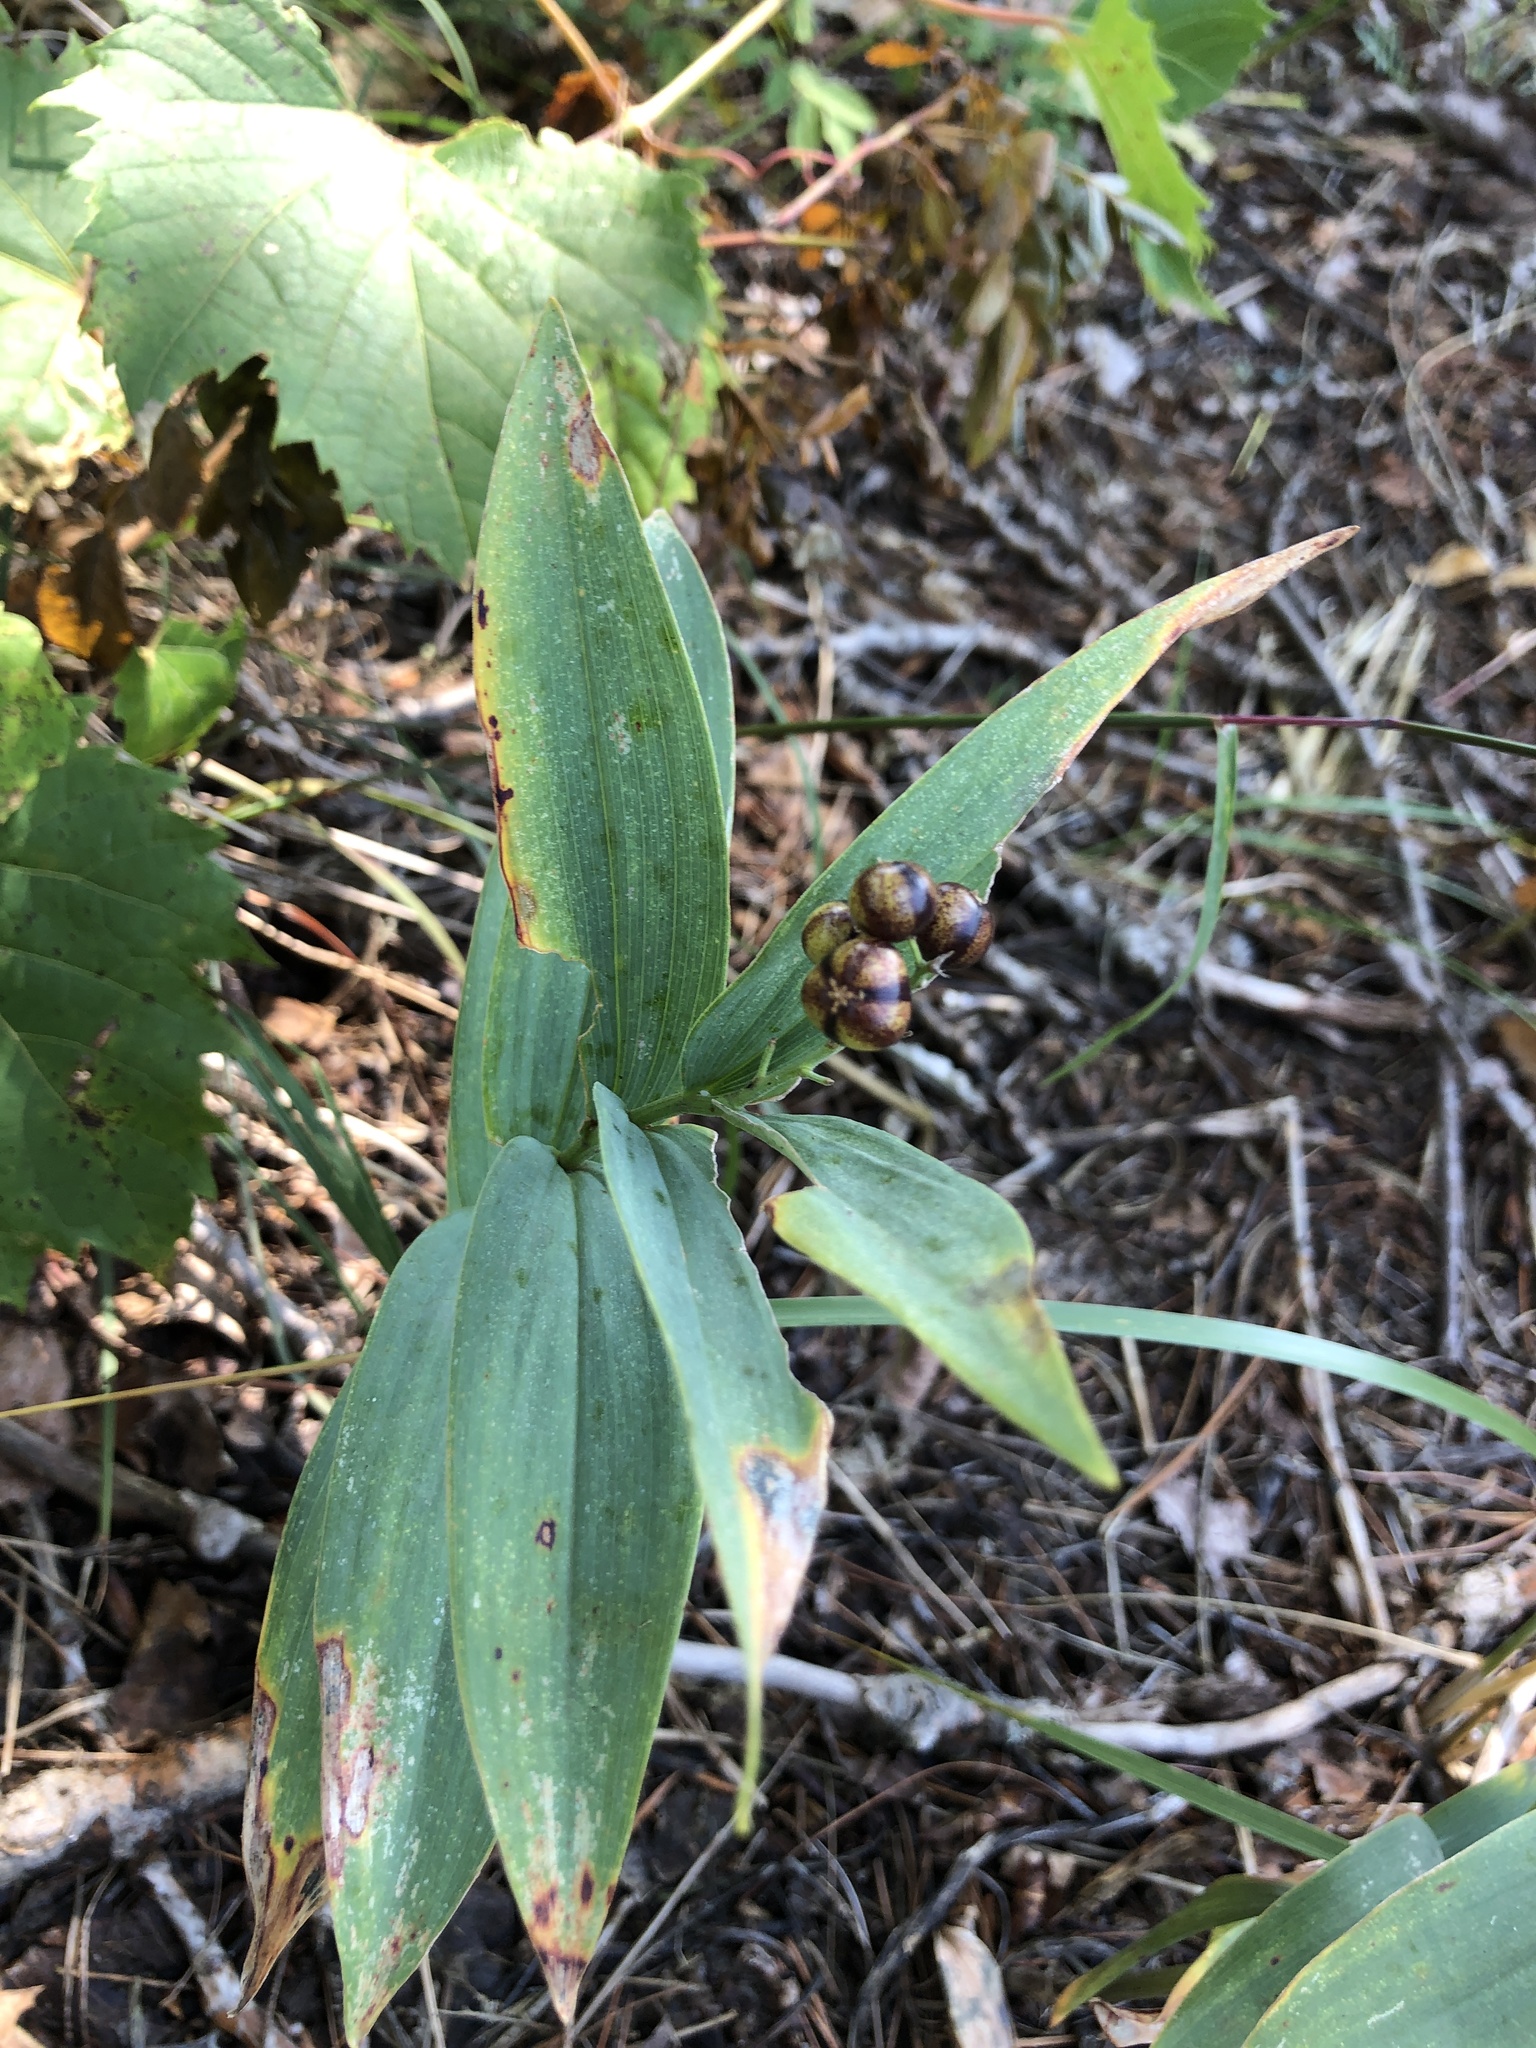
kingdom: Plantae
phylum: Tracheophyta
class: Liliopsida
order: Asparagales
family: Asparagaceae
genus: Maianthemum
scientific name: Maianthemum stellatum
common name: Little false solomon's seal
